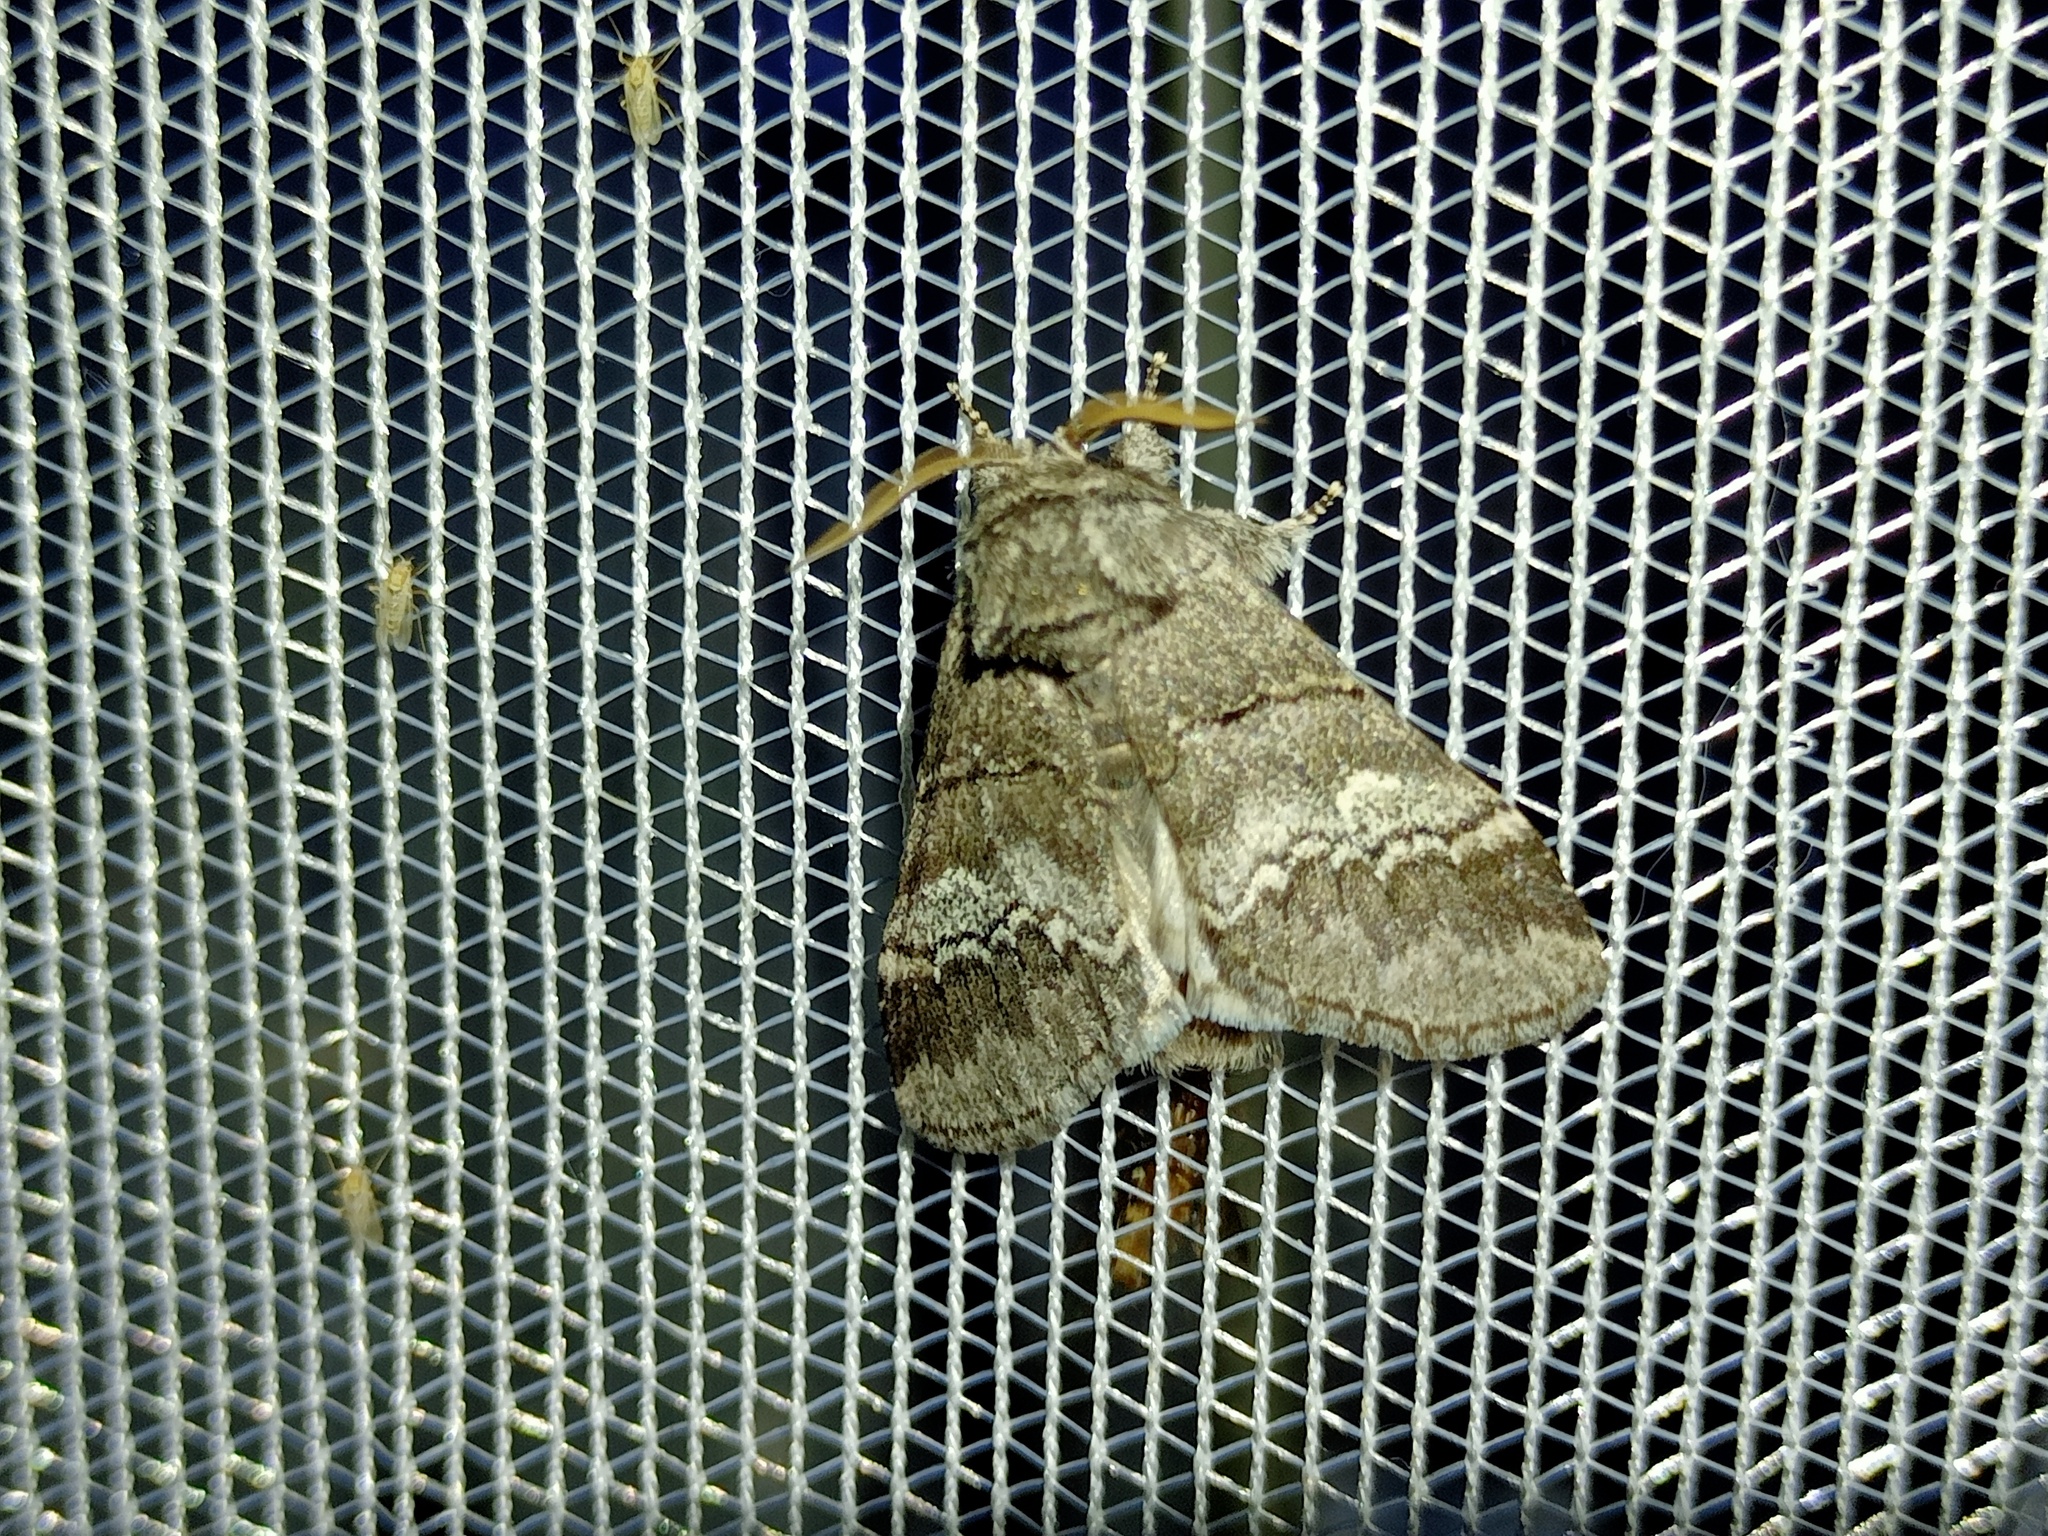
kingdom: Animalia
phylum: Arthropoda
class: Insecta
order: Lepidoptera
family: Notodontidae
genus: Drymonia
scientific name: Drymonia querna
